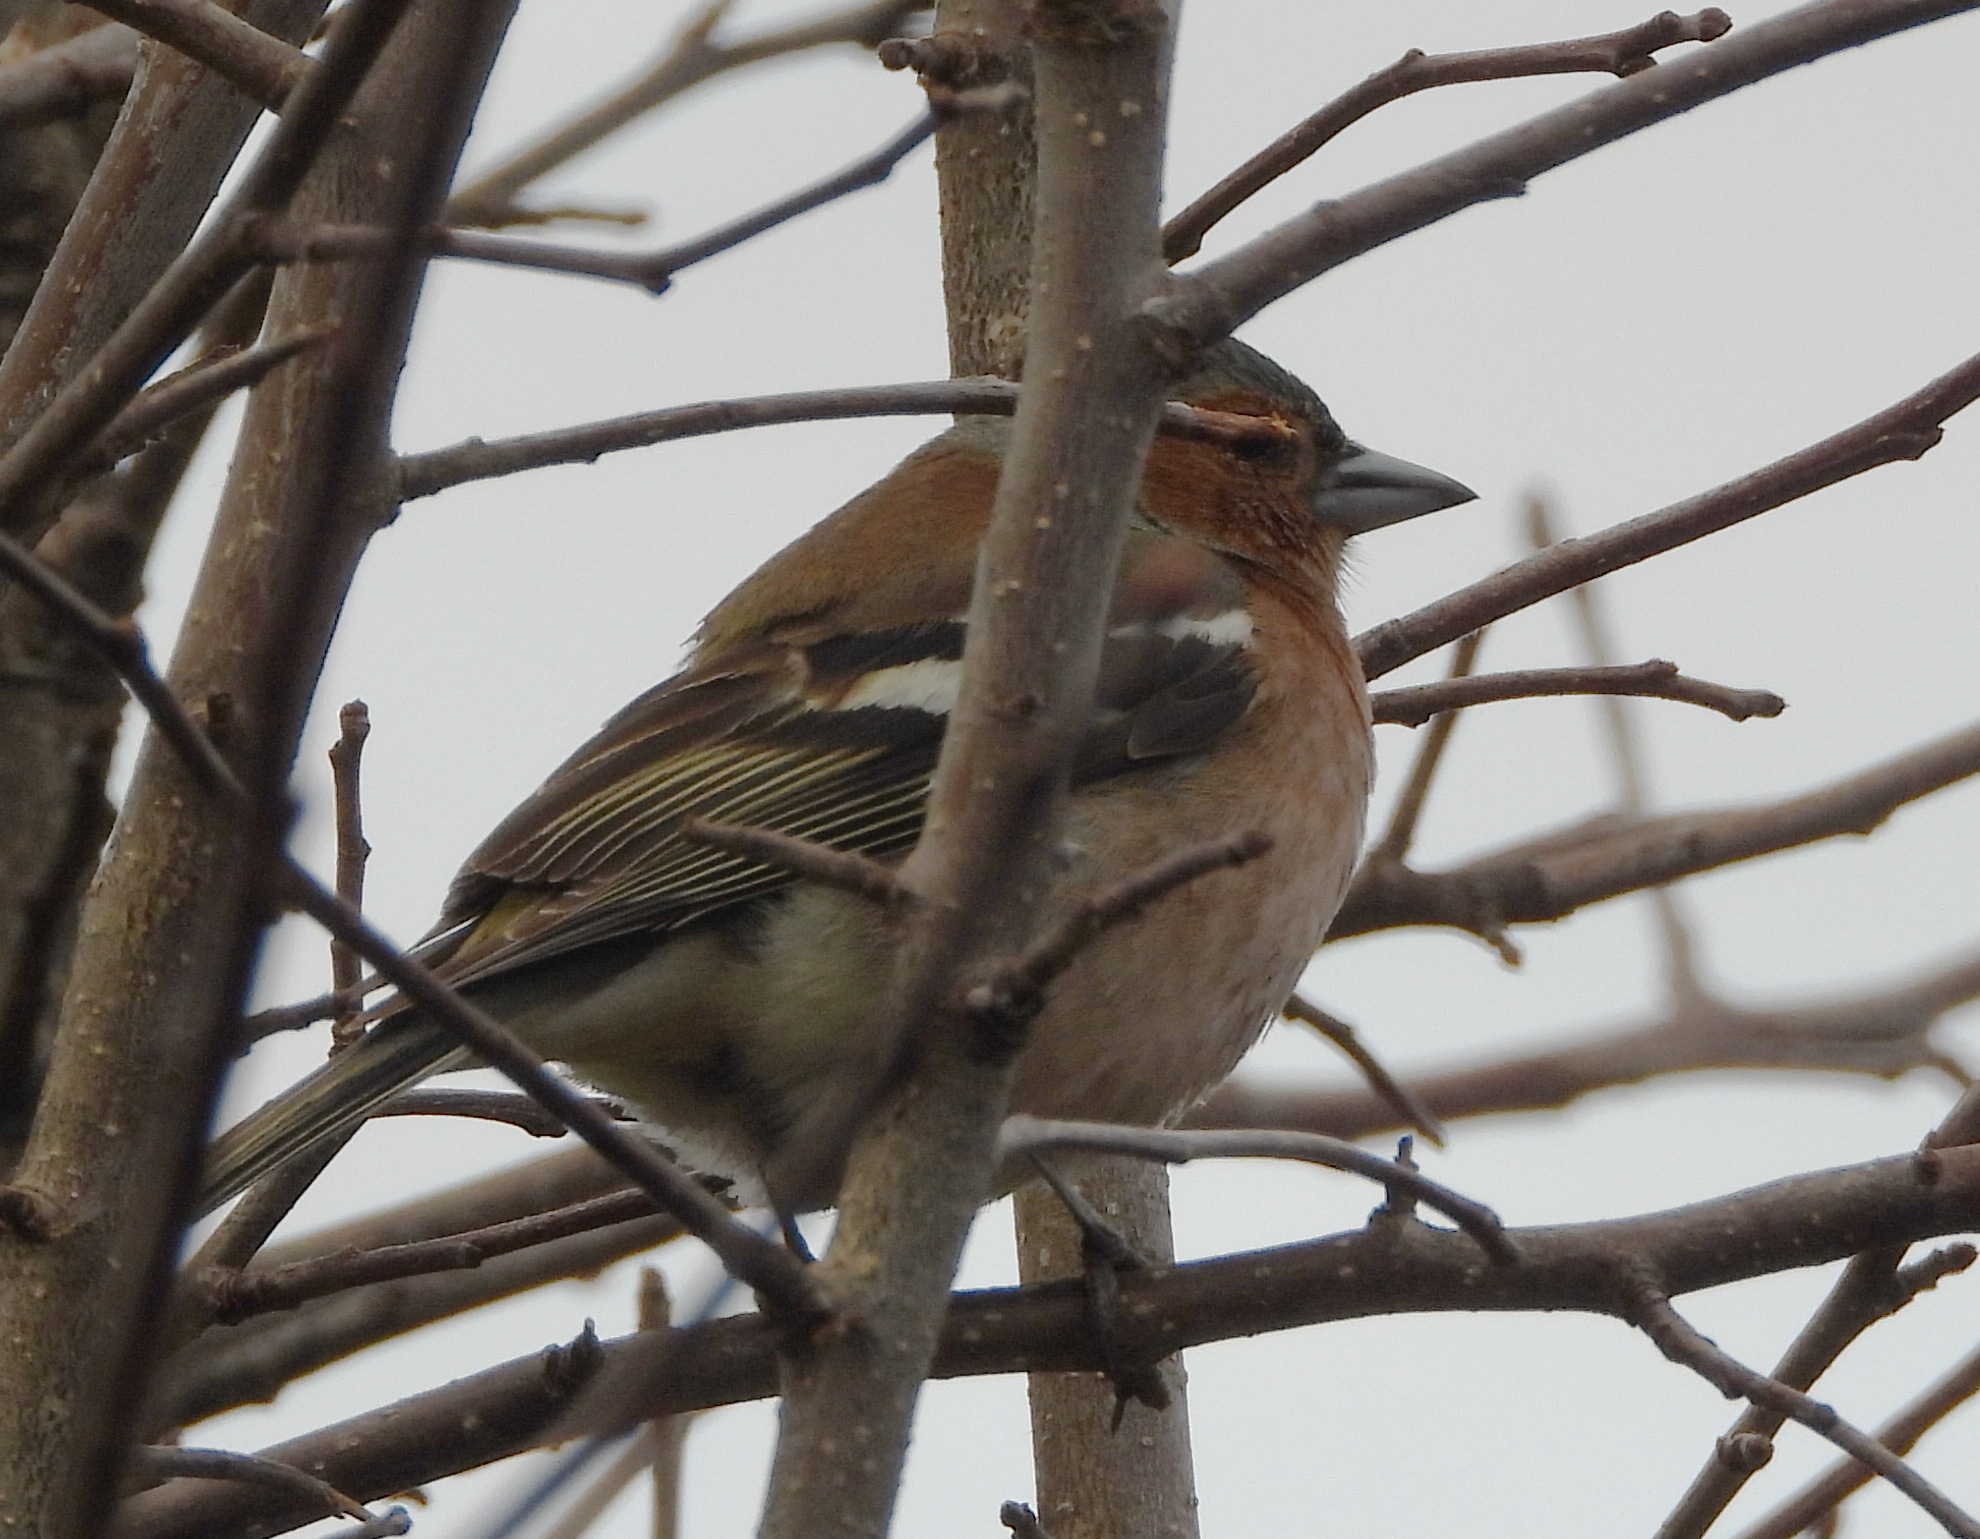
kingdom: Animalia
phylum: Chordata
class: Aves
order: Passeriformes
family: Fringillidae
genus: Fringilla
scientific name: Fringilla coelebs
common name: Common chaffinch
